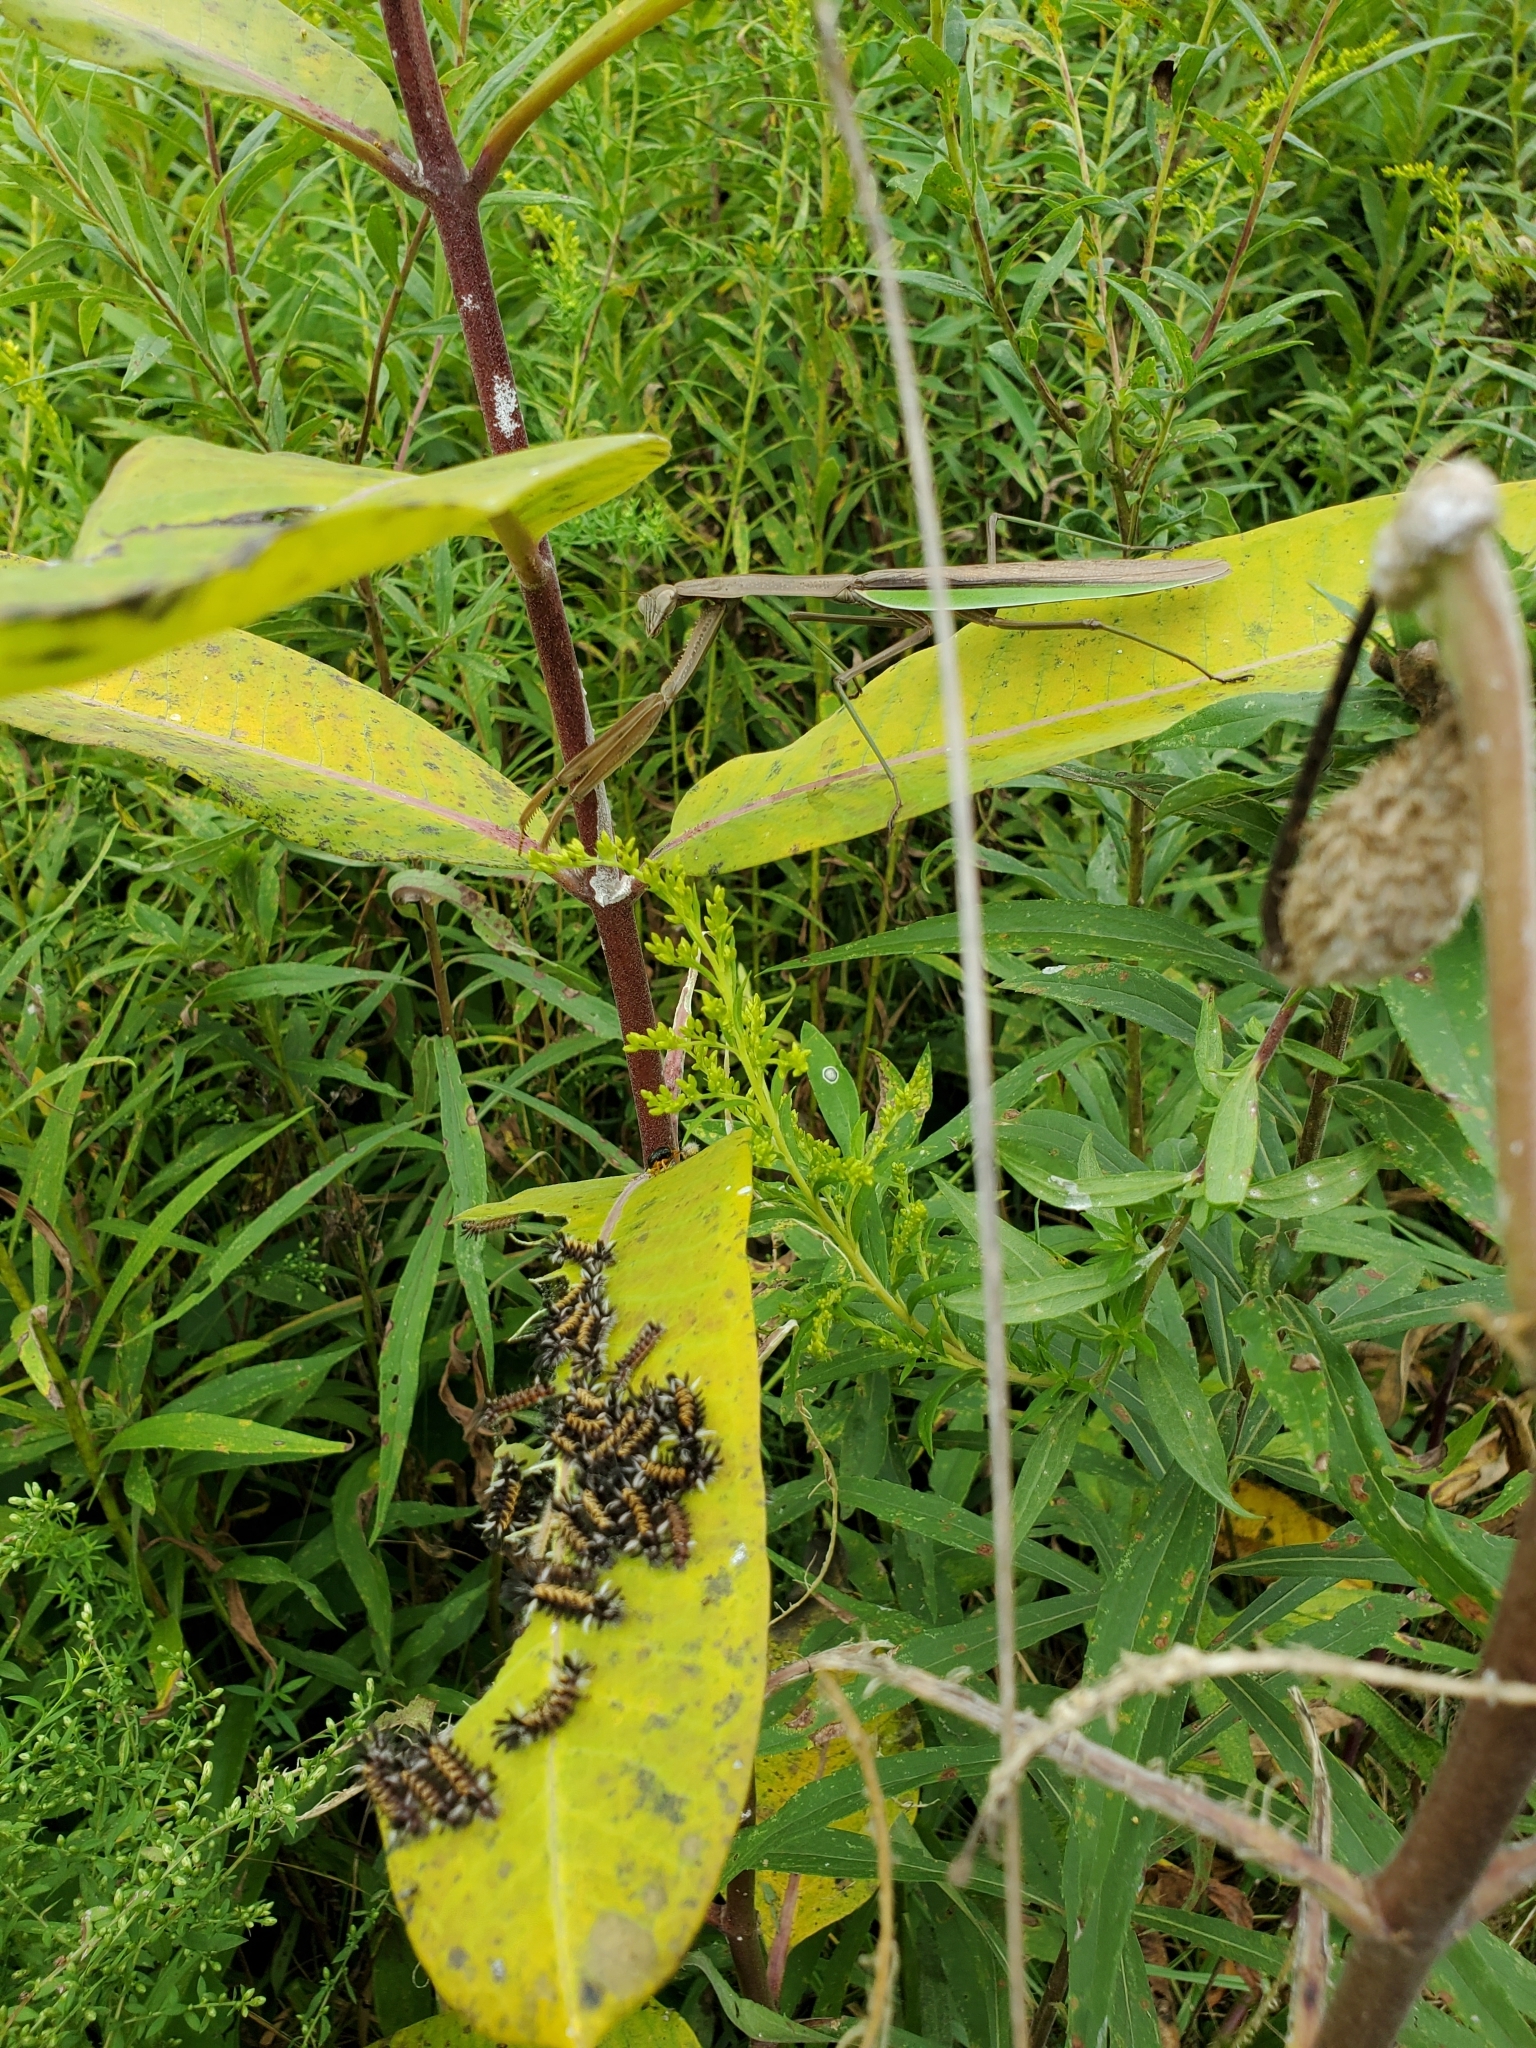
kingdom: Plantae
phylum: Tracheophyta
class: Magnoliopsida
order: Gentianales
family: Apocynaceae
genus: Asclepias
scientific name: Asclepias syriaca
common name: Common milkweed
